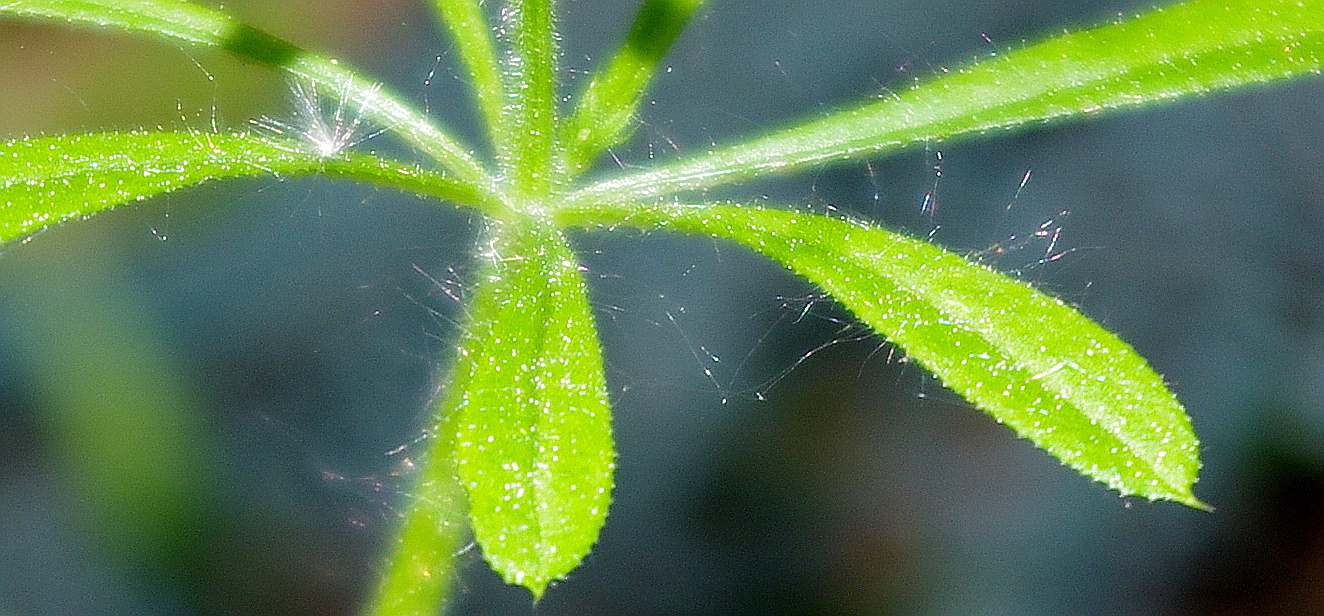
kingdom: Plantae
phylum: Tracheophyta
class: Magnoliopsida
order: Gentianales
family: Rubiaceae
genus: Galium
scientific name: Galium
